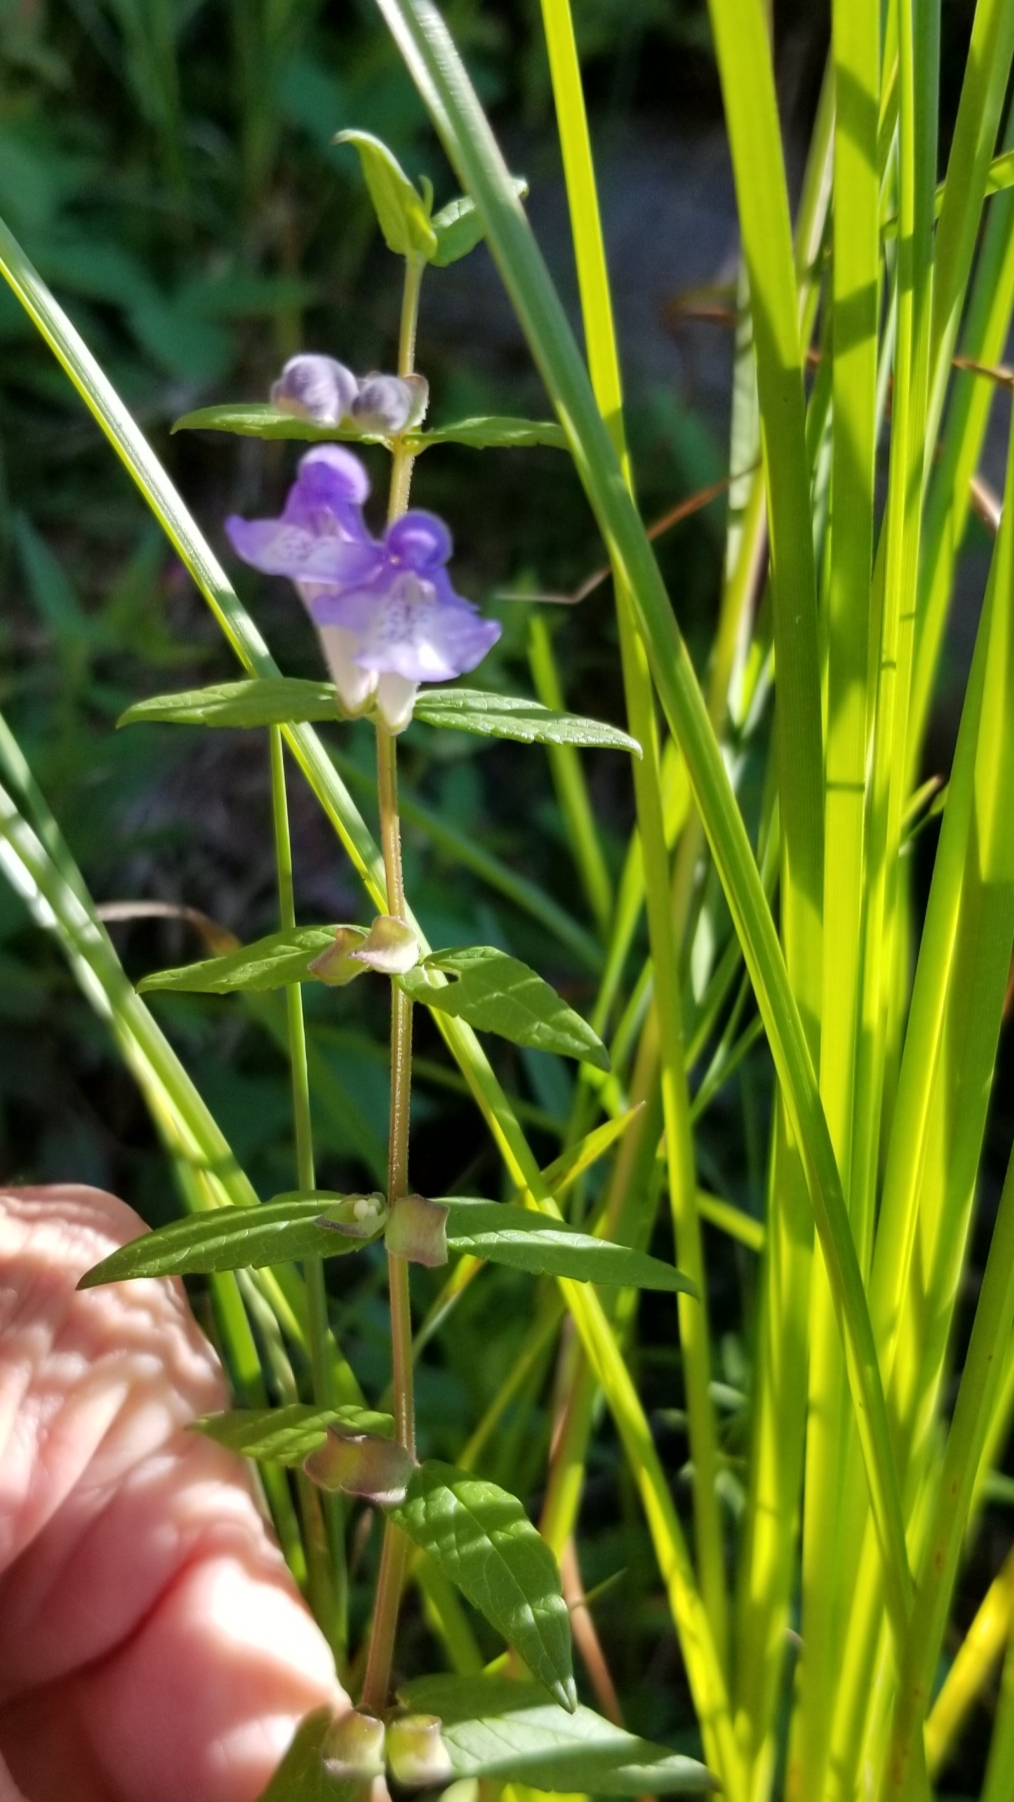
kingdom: Plantae
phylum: Tracheophyta
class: Magnoliopsida
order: Lamiales
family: Lamiaceae
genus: Scutellaria
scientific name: Scutellaria galericulata
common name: Skullcap
